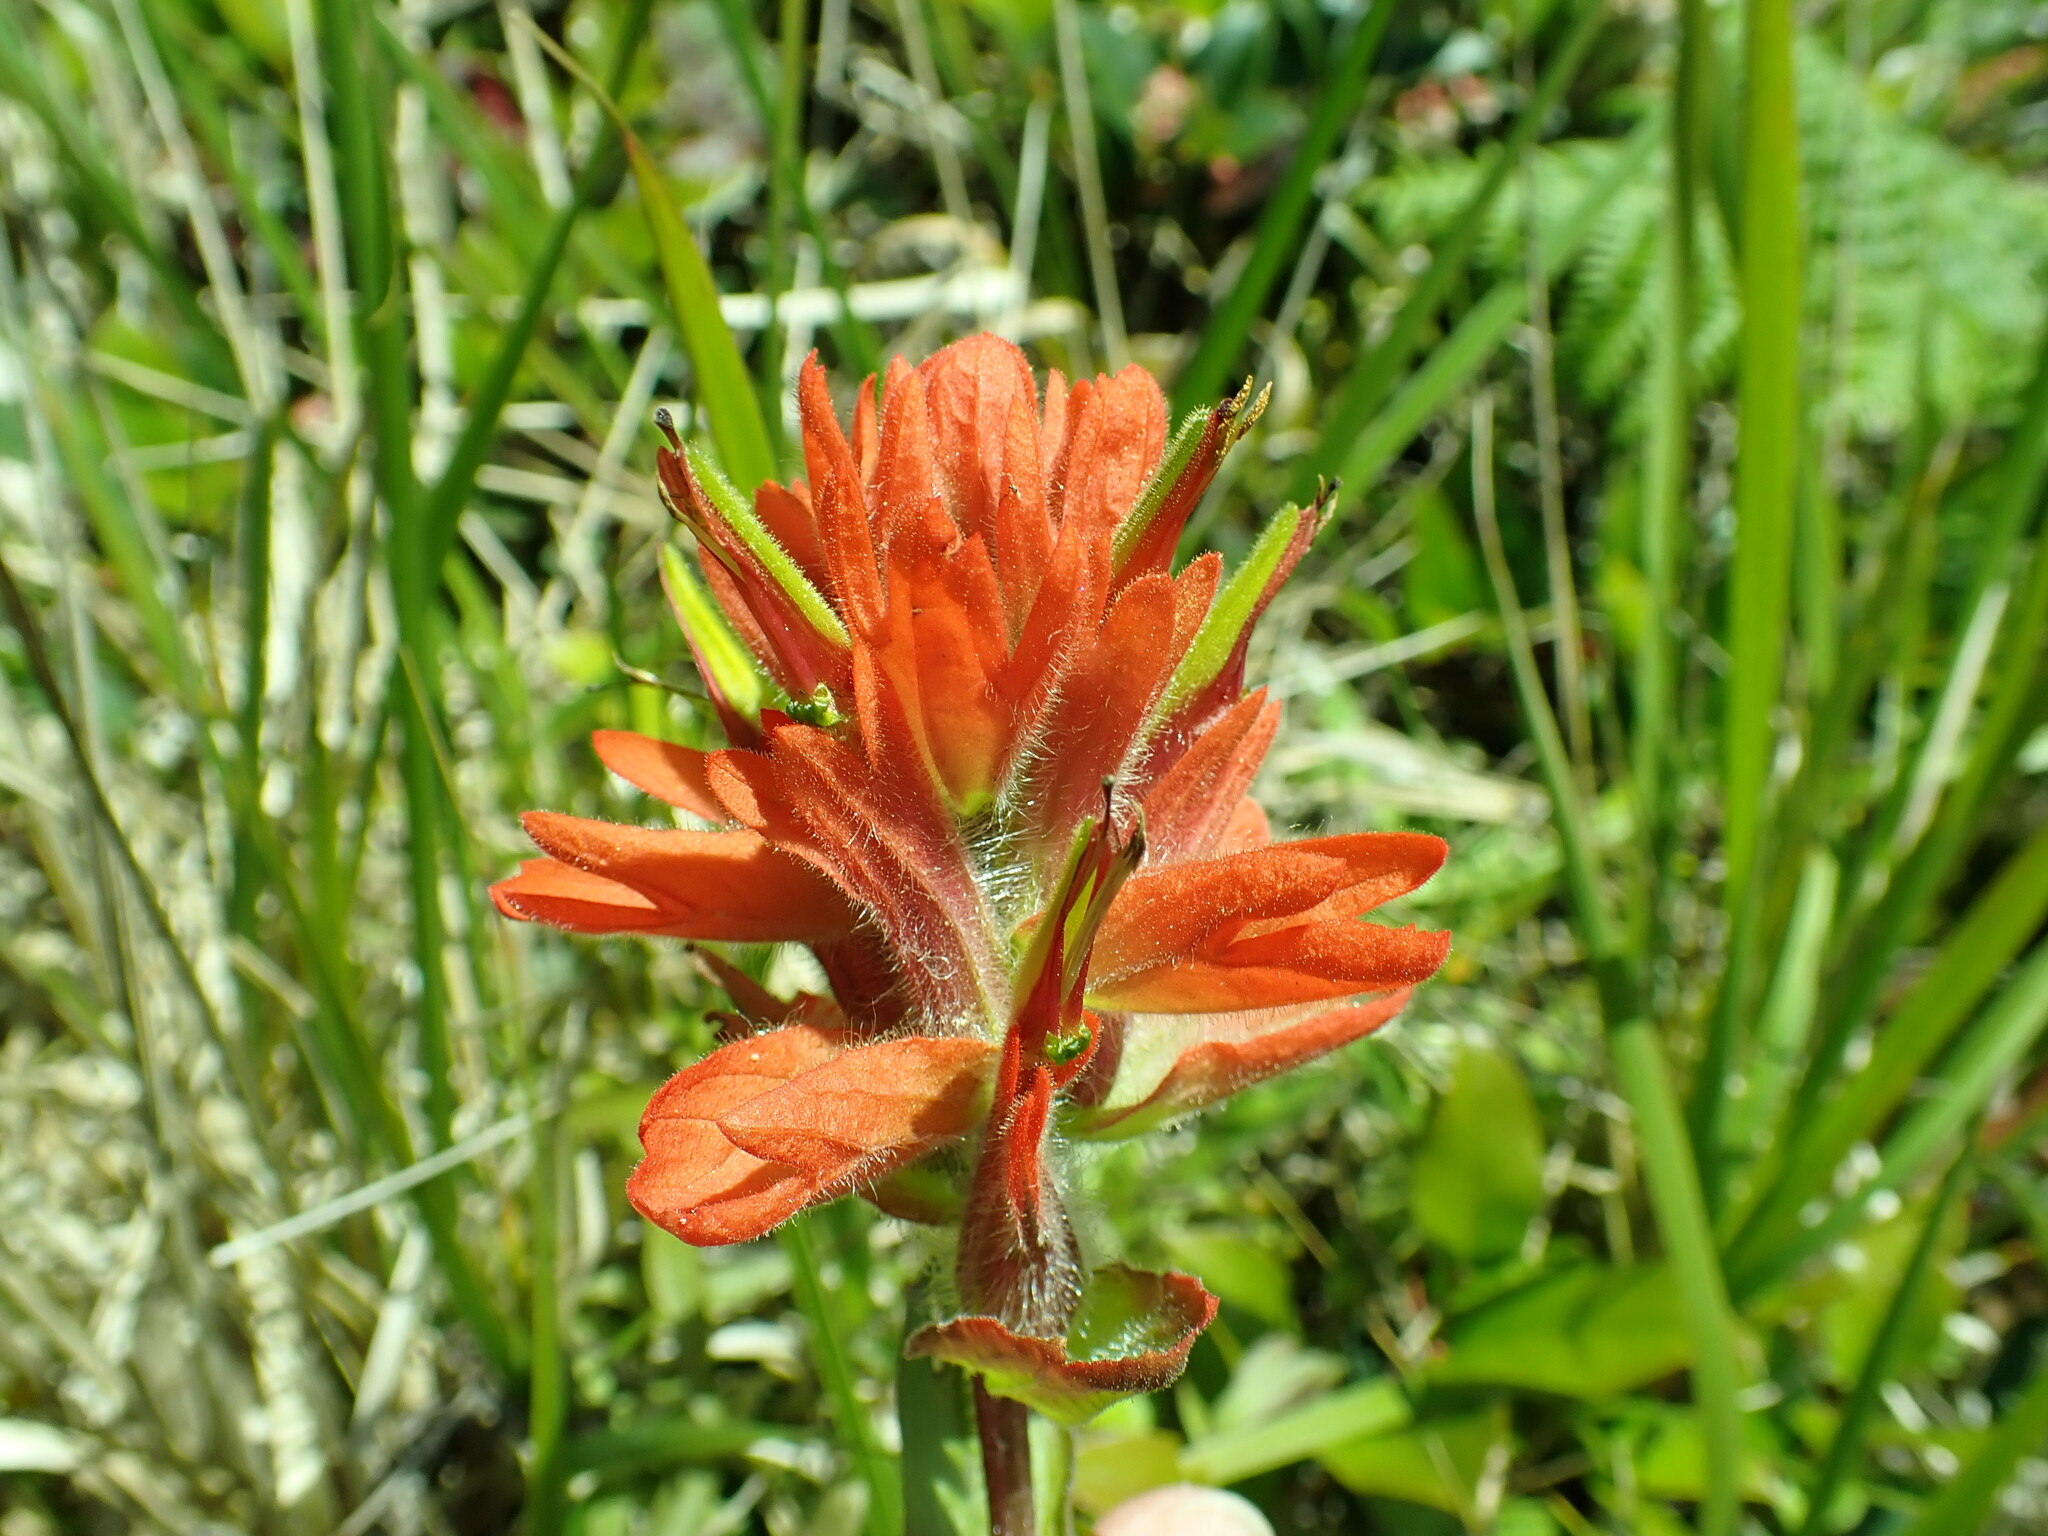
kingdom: Plantae
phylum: Tracheophyta
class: Magnoliopsida
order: Lamiales
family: Orobanchaceae
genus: Castilleja
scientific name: Castilleja litoralis
